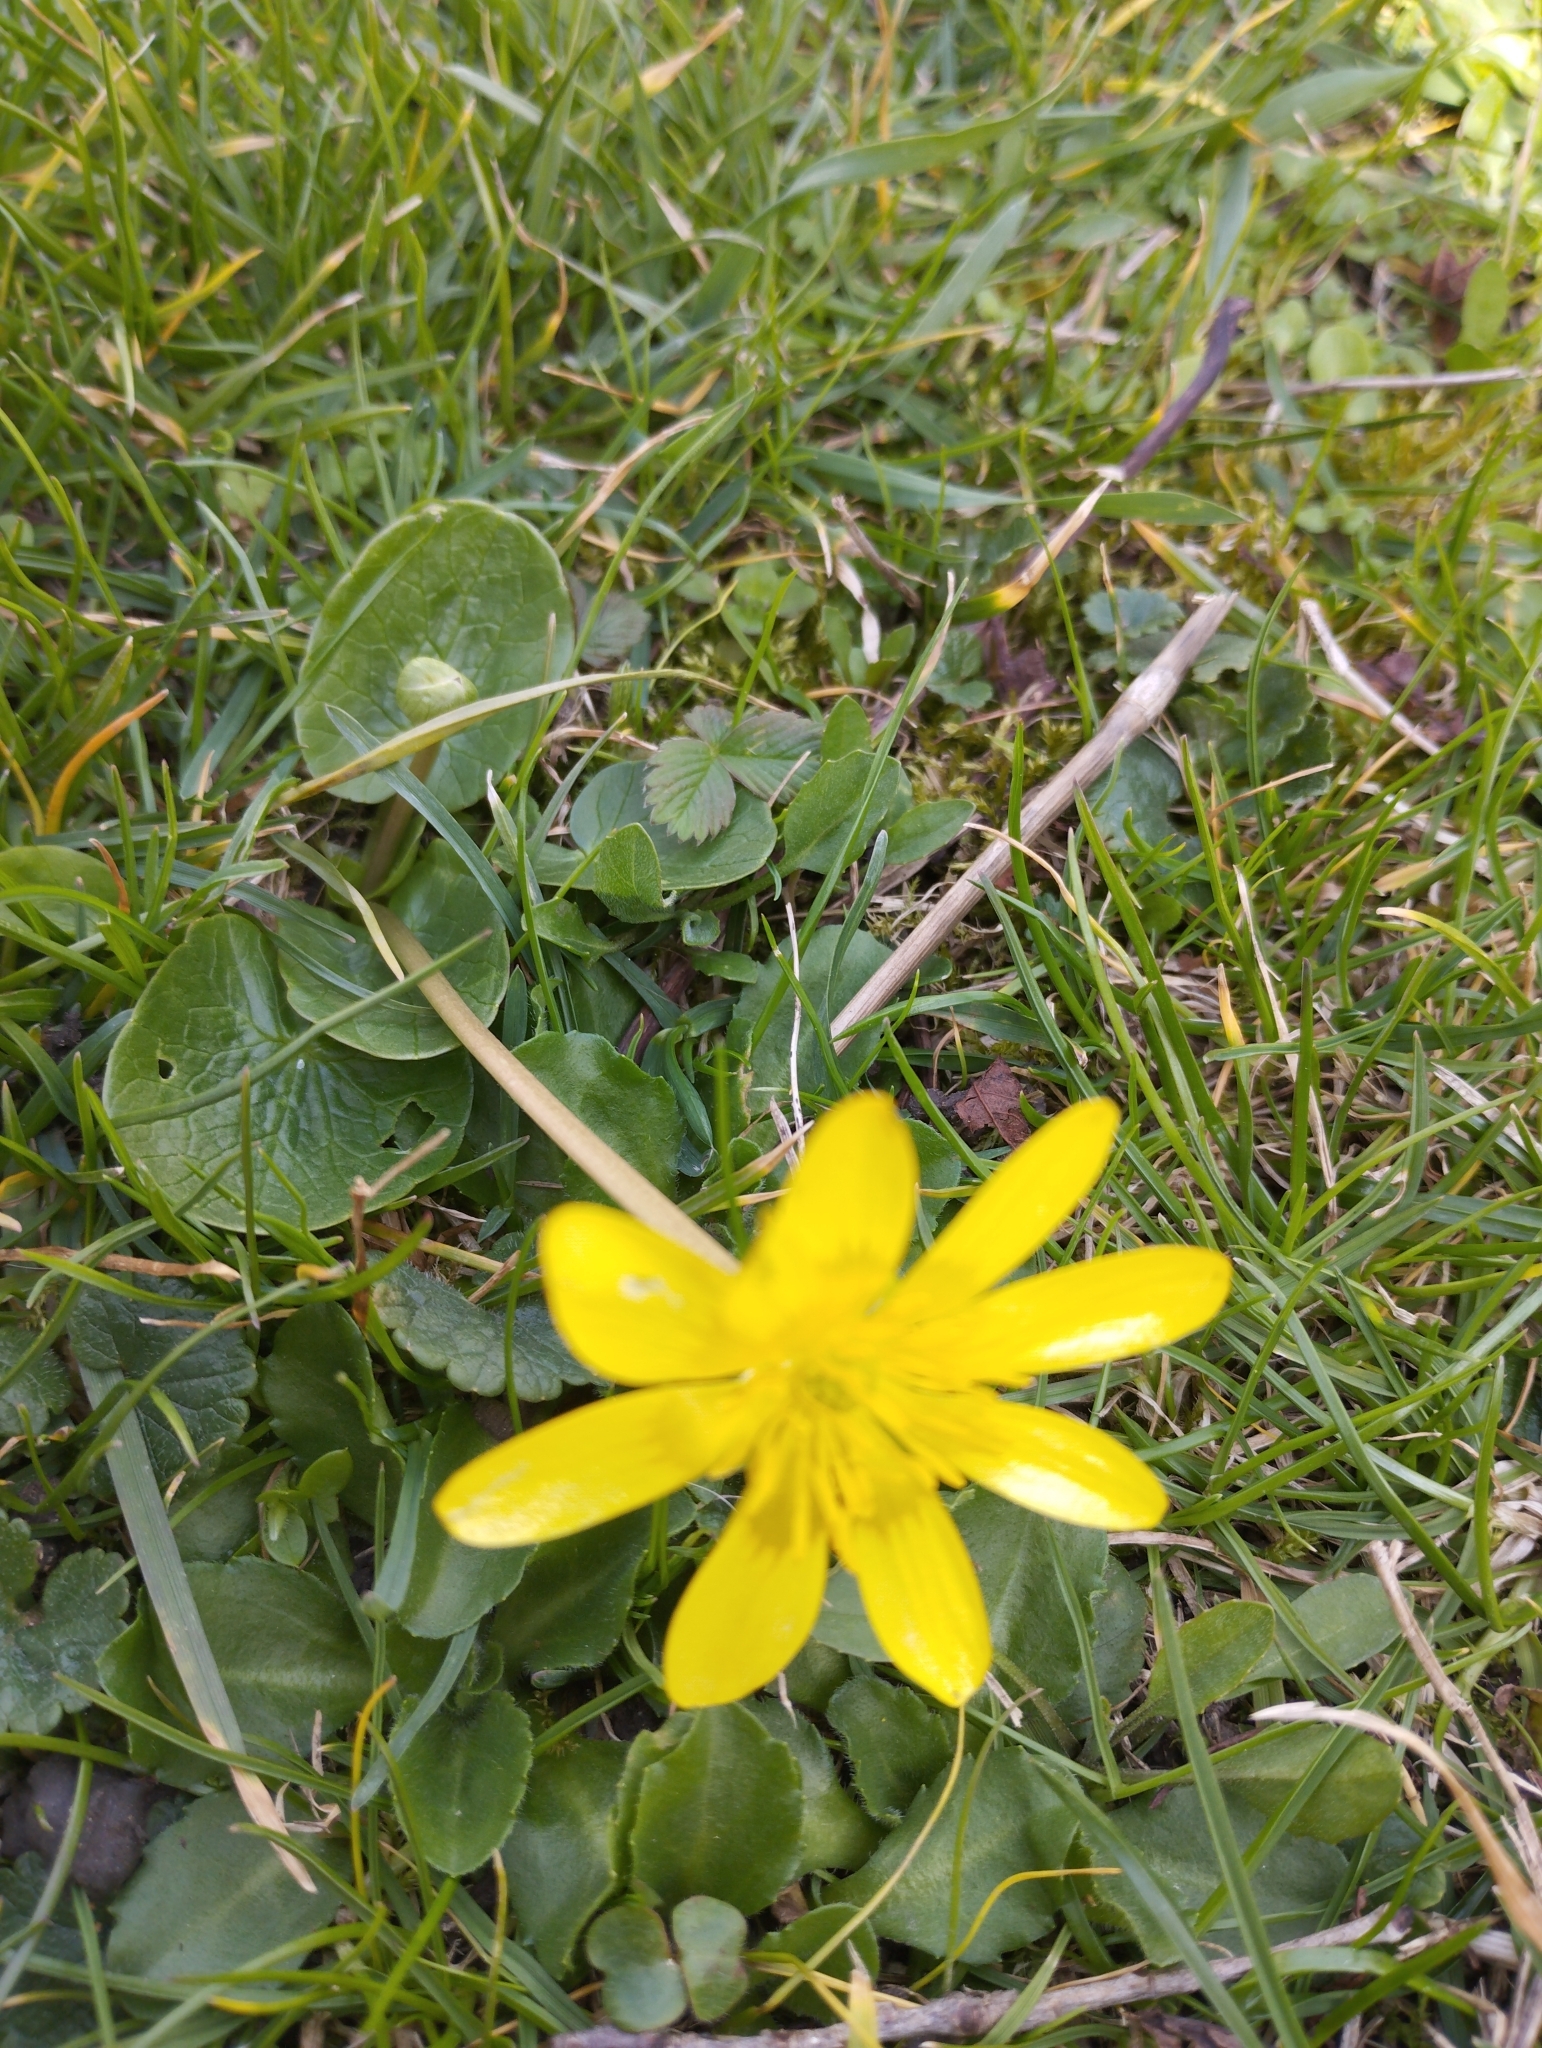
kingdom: Plantae
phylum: Tracheophyta
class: Magnoliopsida
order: Ranunculales
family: Ranunculaceae
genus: Ficaria
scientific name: Ficaria verna
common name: Lesser celandine
